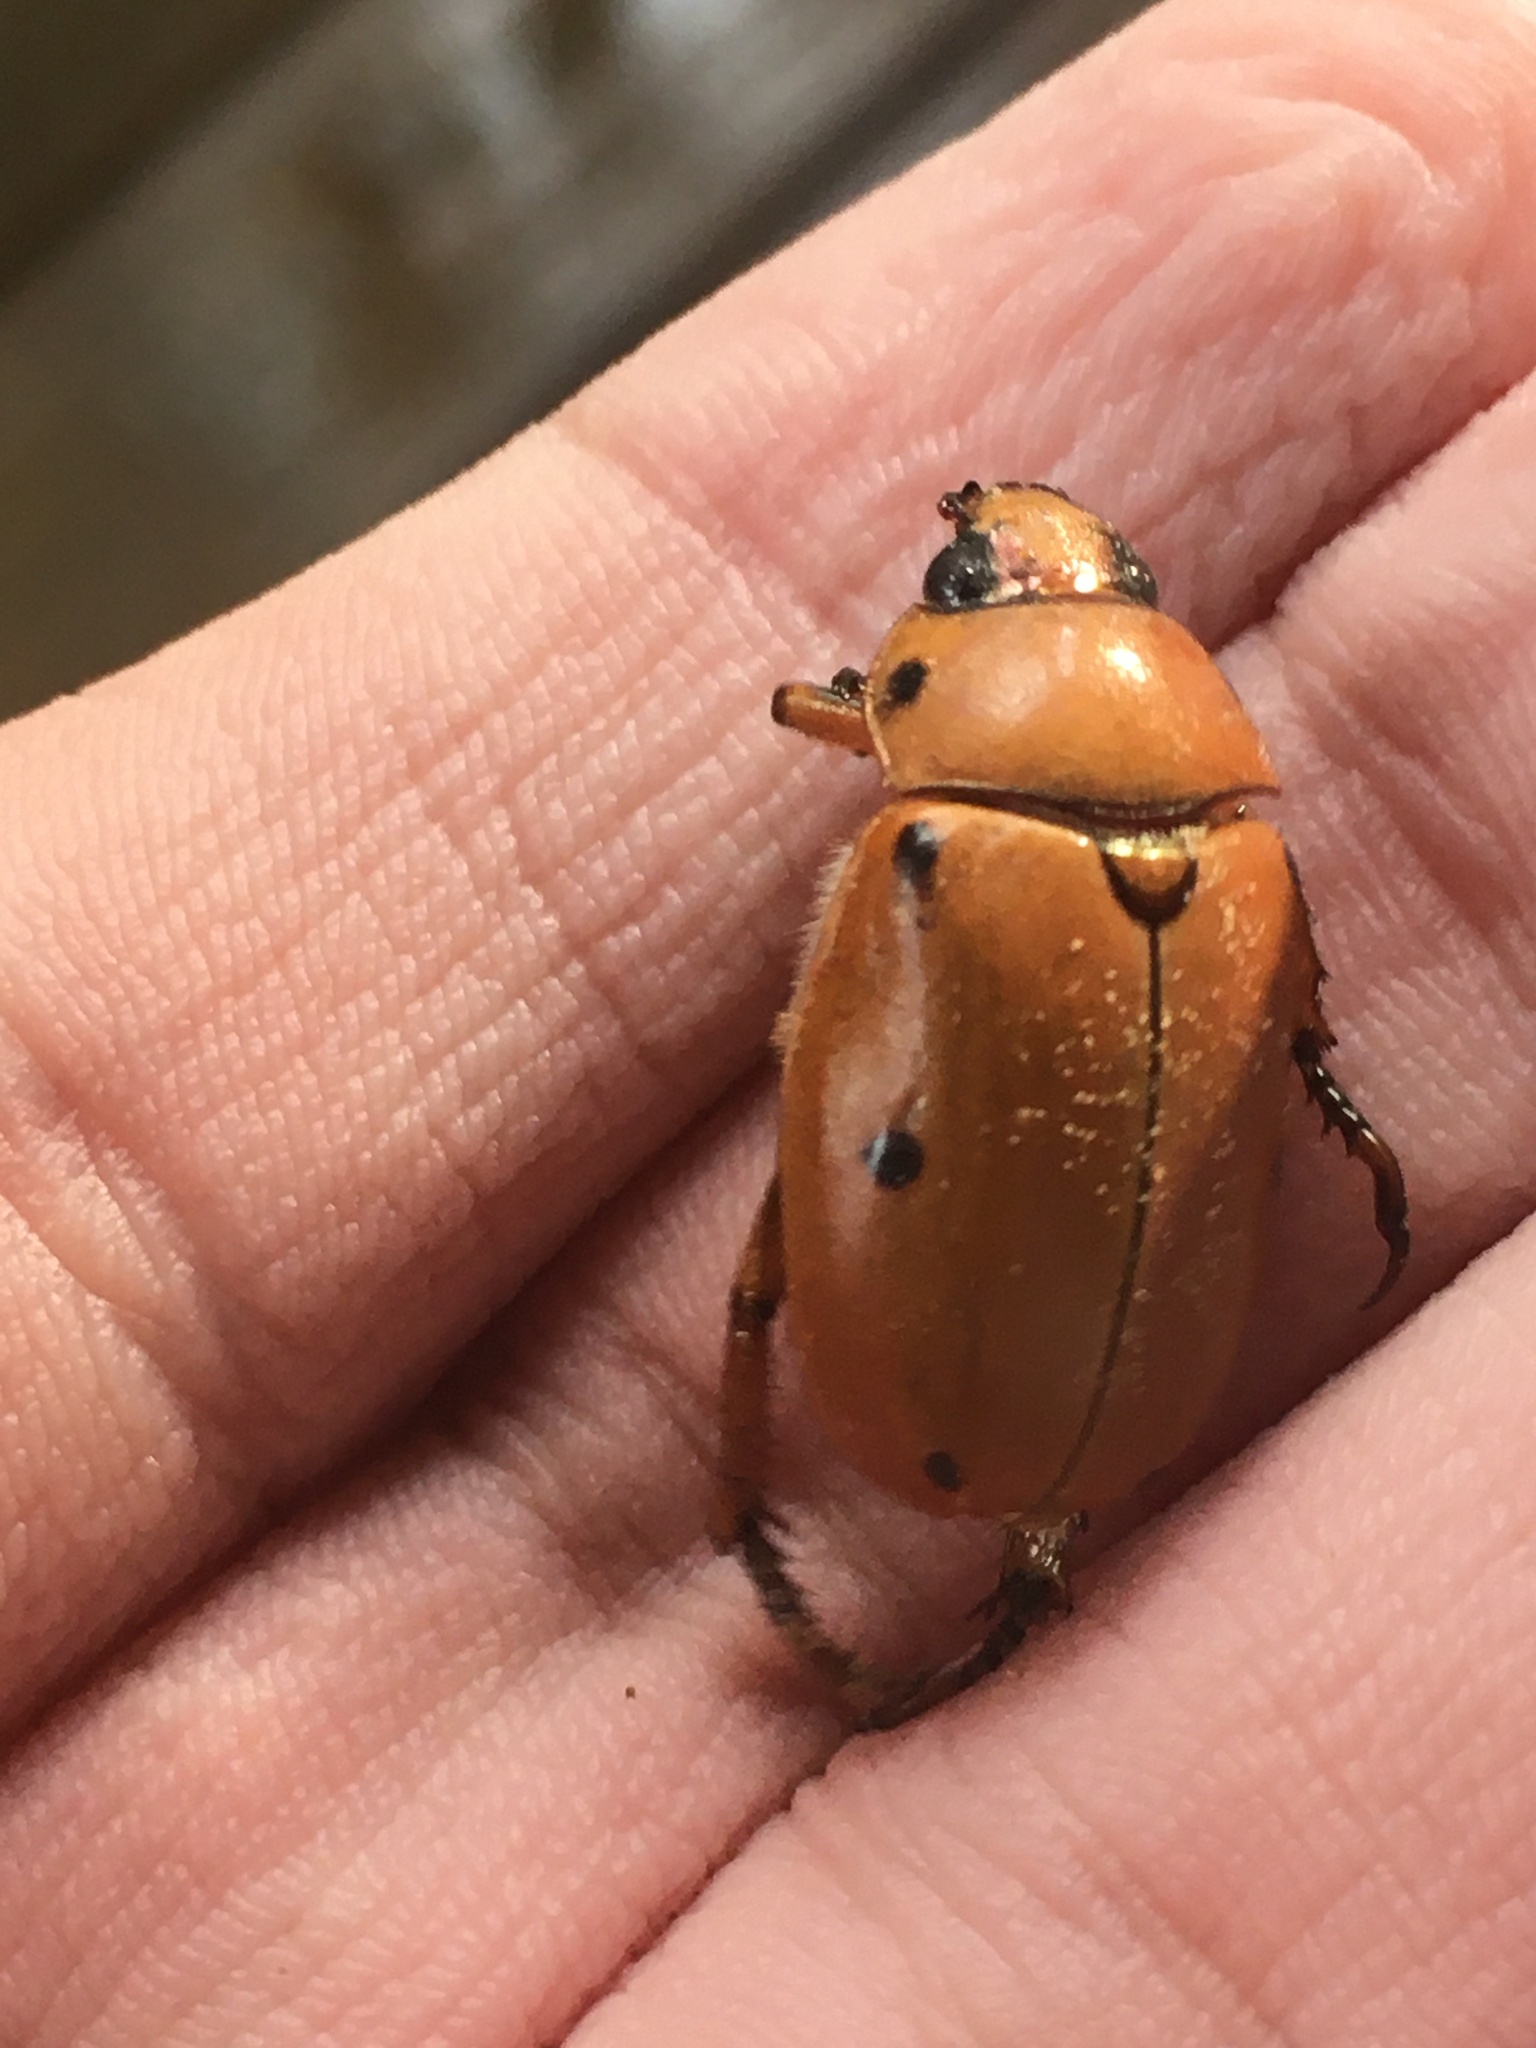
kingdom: Animalia
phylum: Arthropoda
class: Insecta
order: Coleoptera
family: Scarabaeidae
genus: Pelidnota
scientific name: Pelidnota punctata
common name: Grapevine beetle
